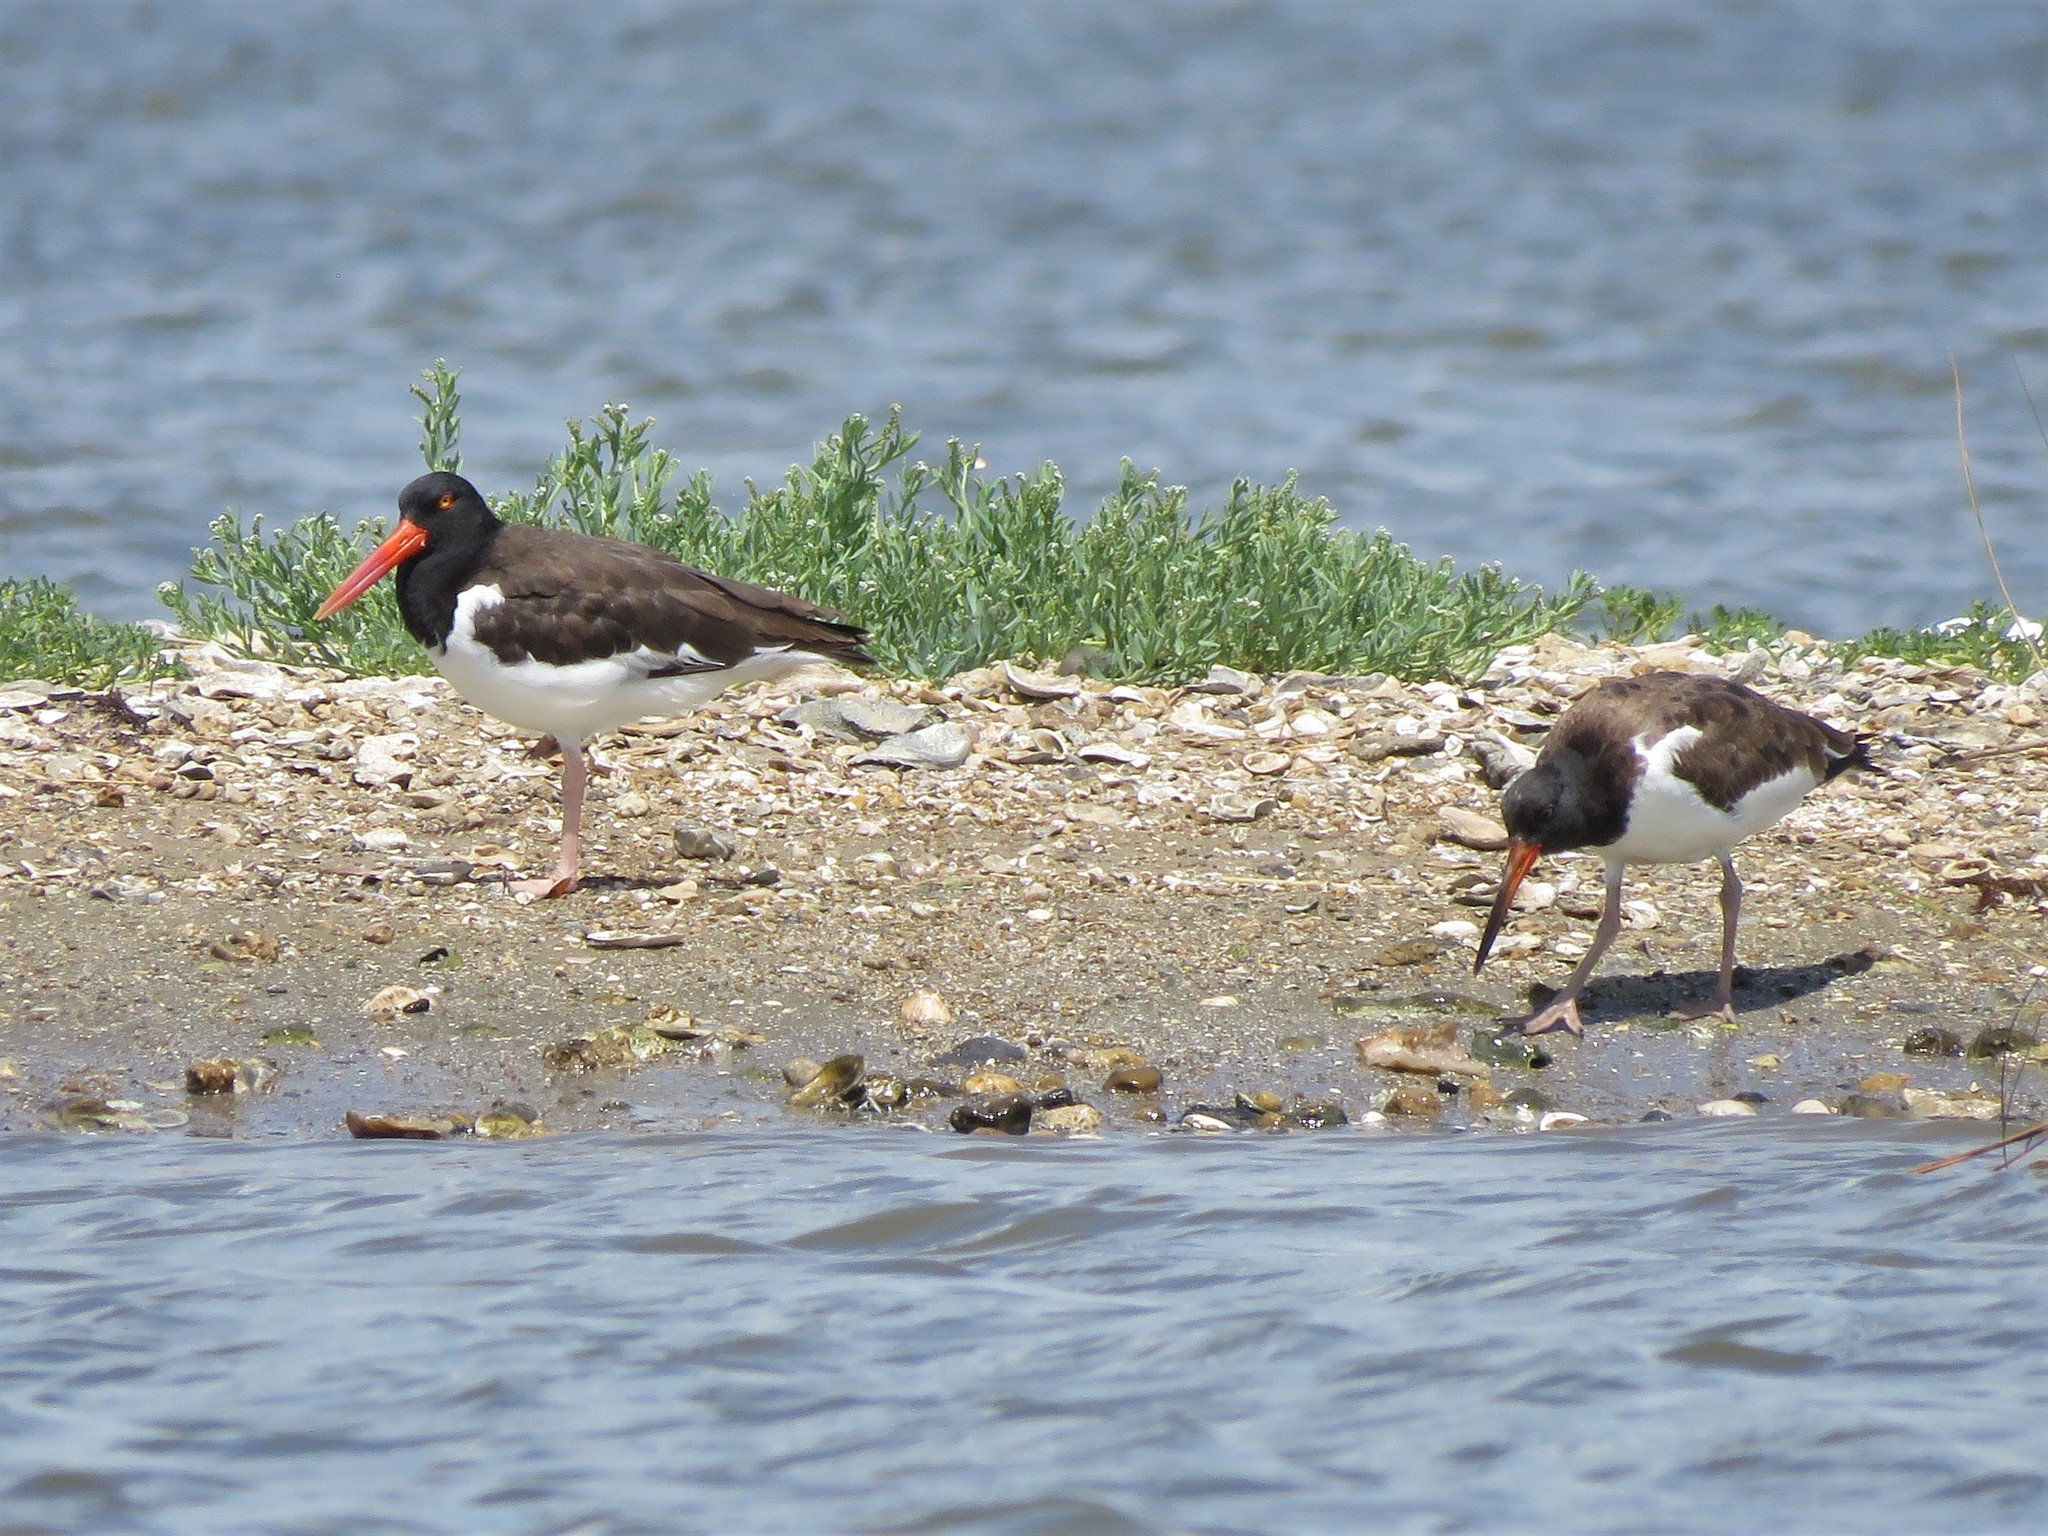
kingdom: Animalia
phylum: Chordata
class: Aves
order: Charadriiformes
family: Haematopodidae
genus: Haematopus
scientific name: Haematopus palliatus
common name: American oystercatcher
